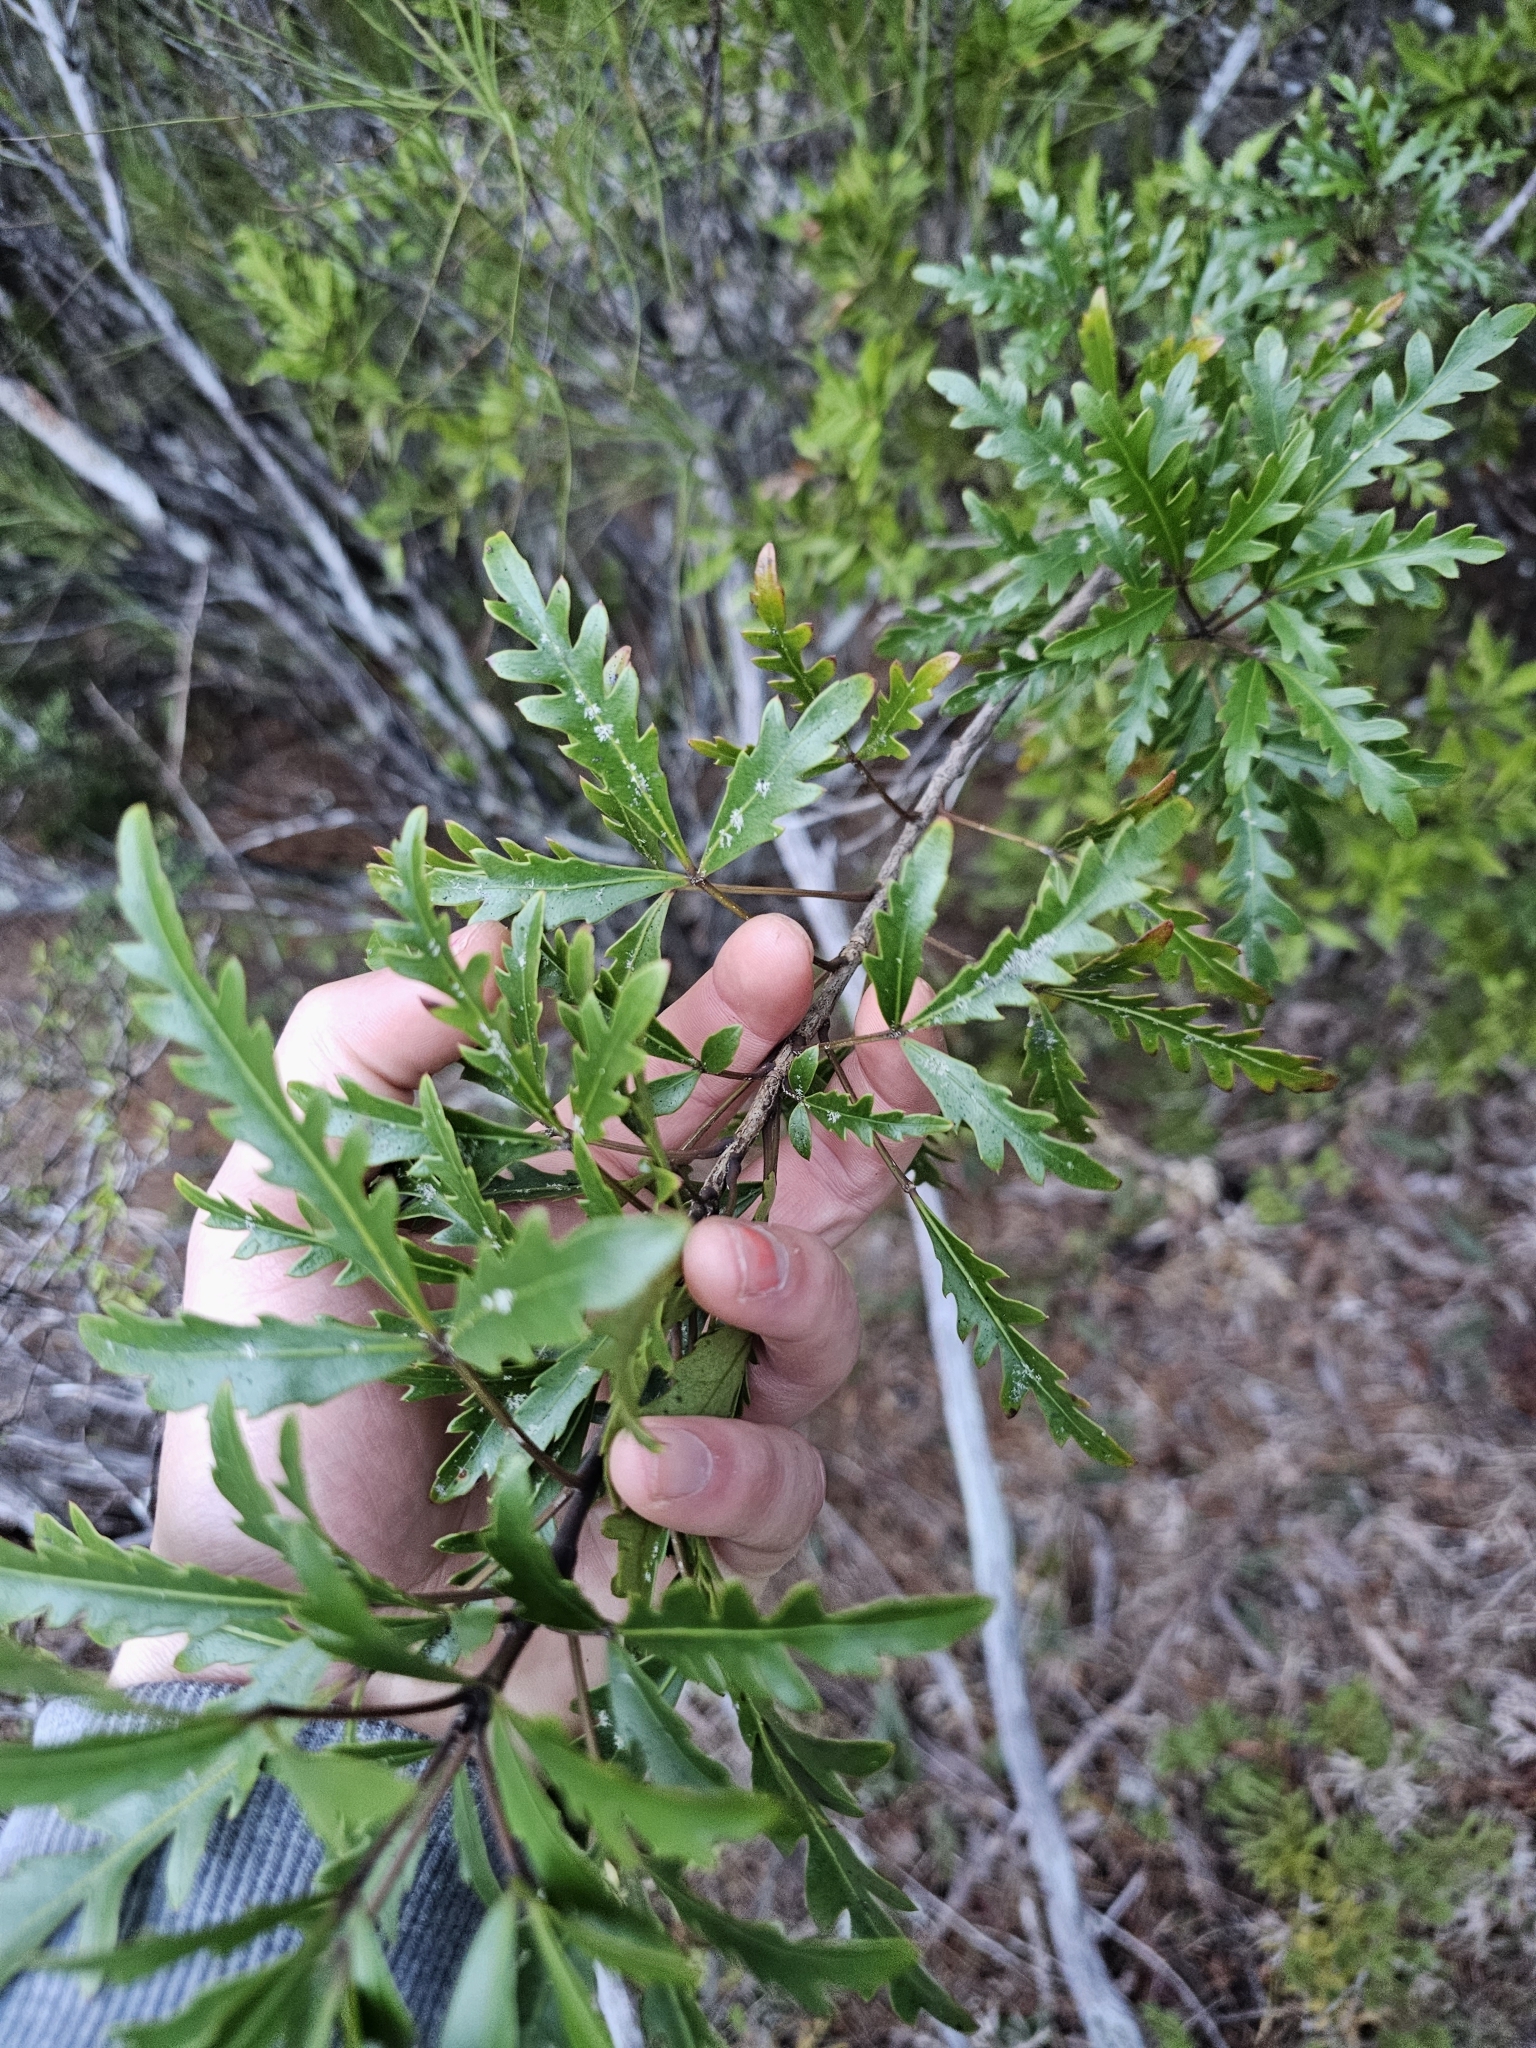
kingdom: Plantae
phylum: Tracheophyta
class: Magnoliopsida
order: Apiales
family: Araliaceae
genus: Raukaua
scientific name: Raukaua simplex
